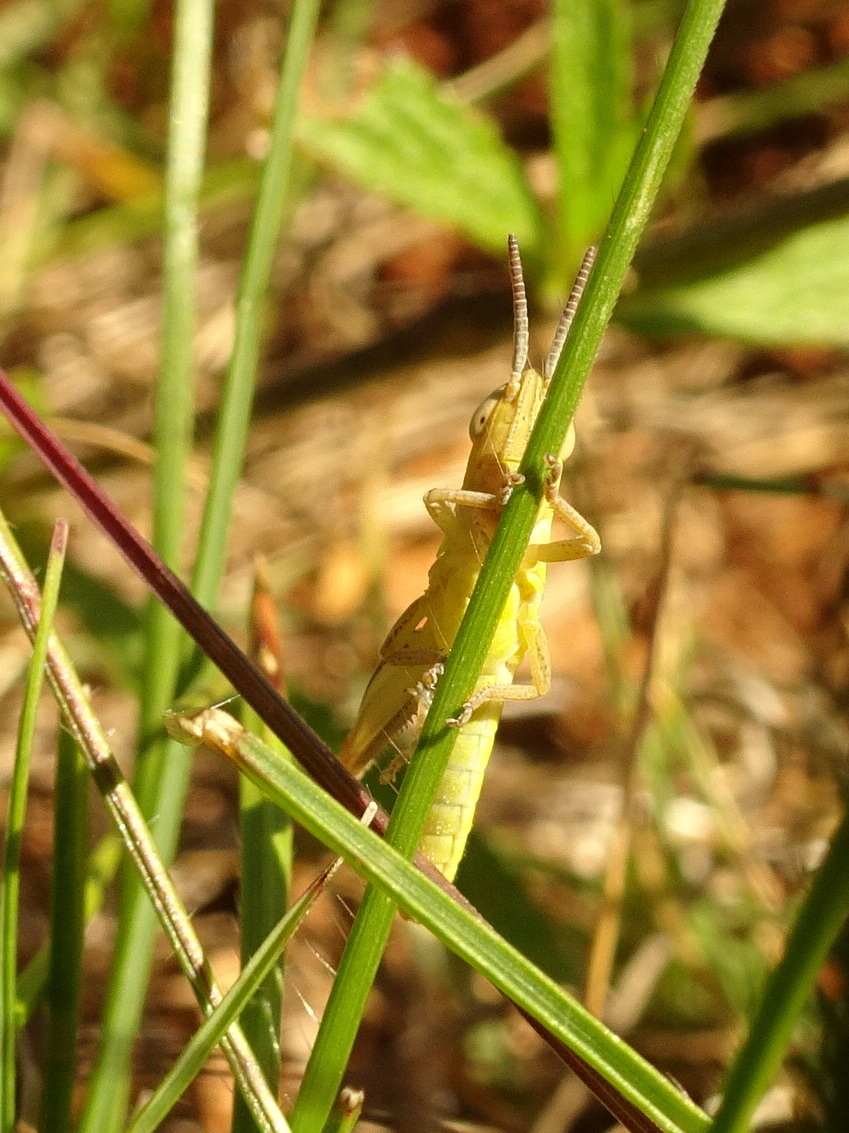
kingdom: Animalia
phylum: Arthropoda
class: Insecta
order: Orthoptera
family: Pyrgomorphidae
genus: Pyrgomorpha
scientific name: Pyrgomorpha conica
